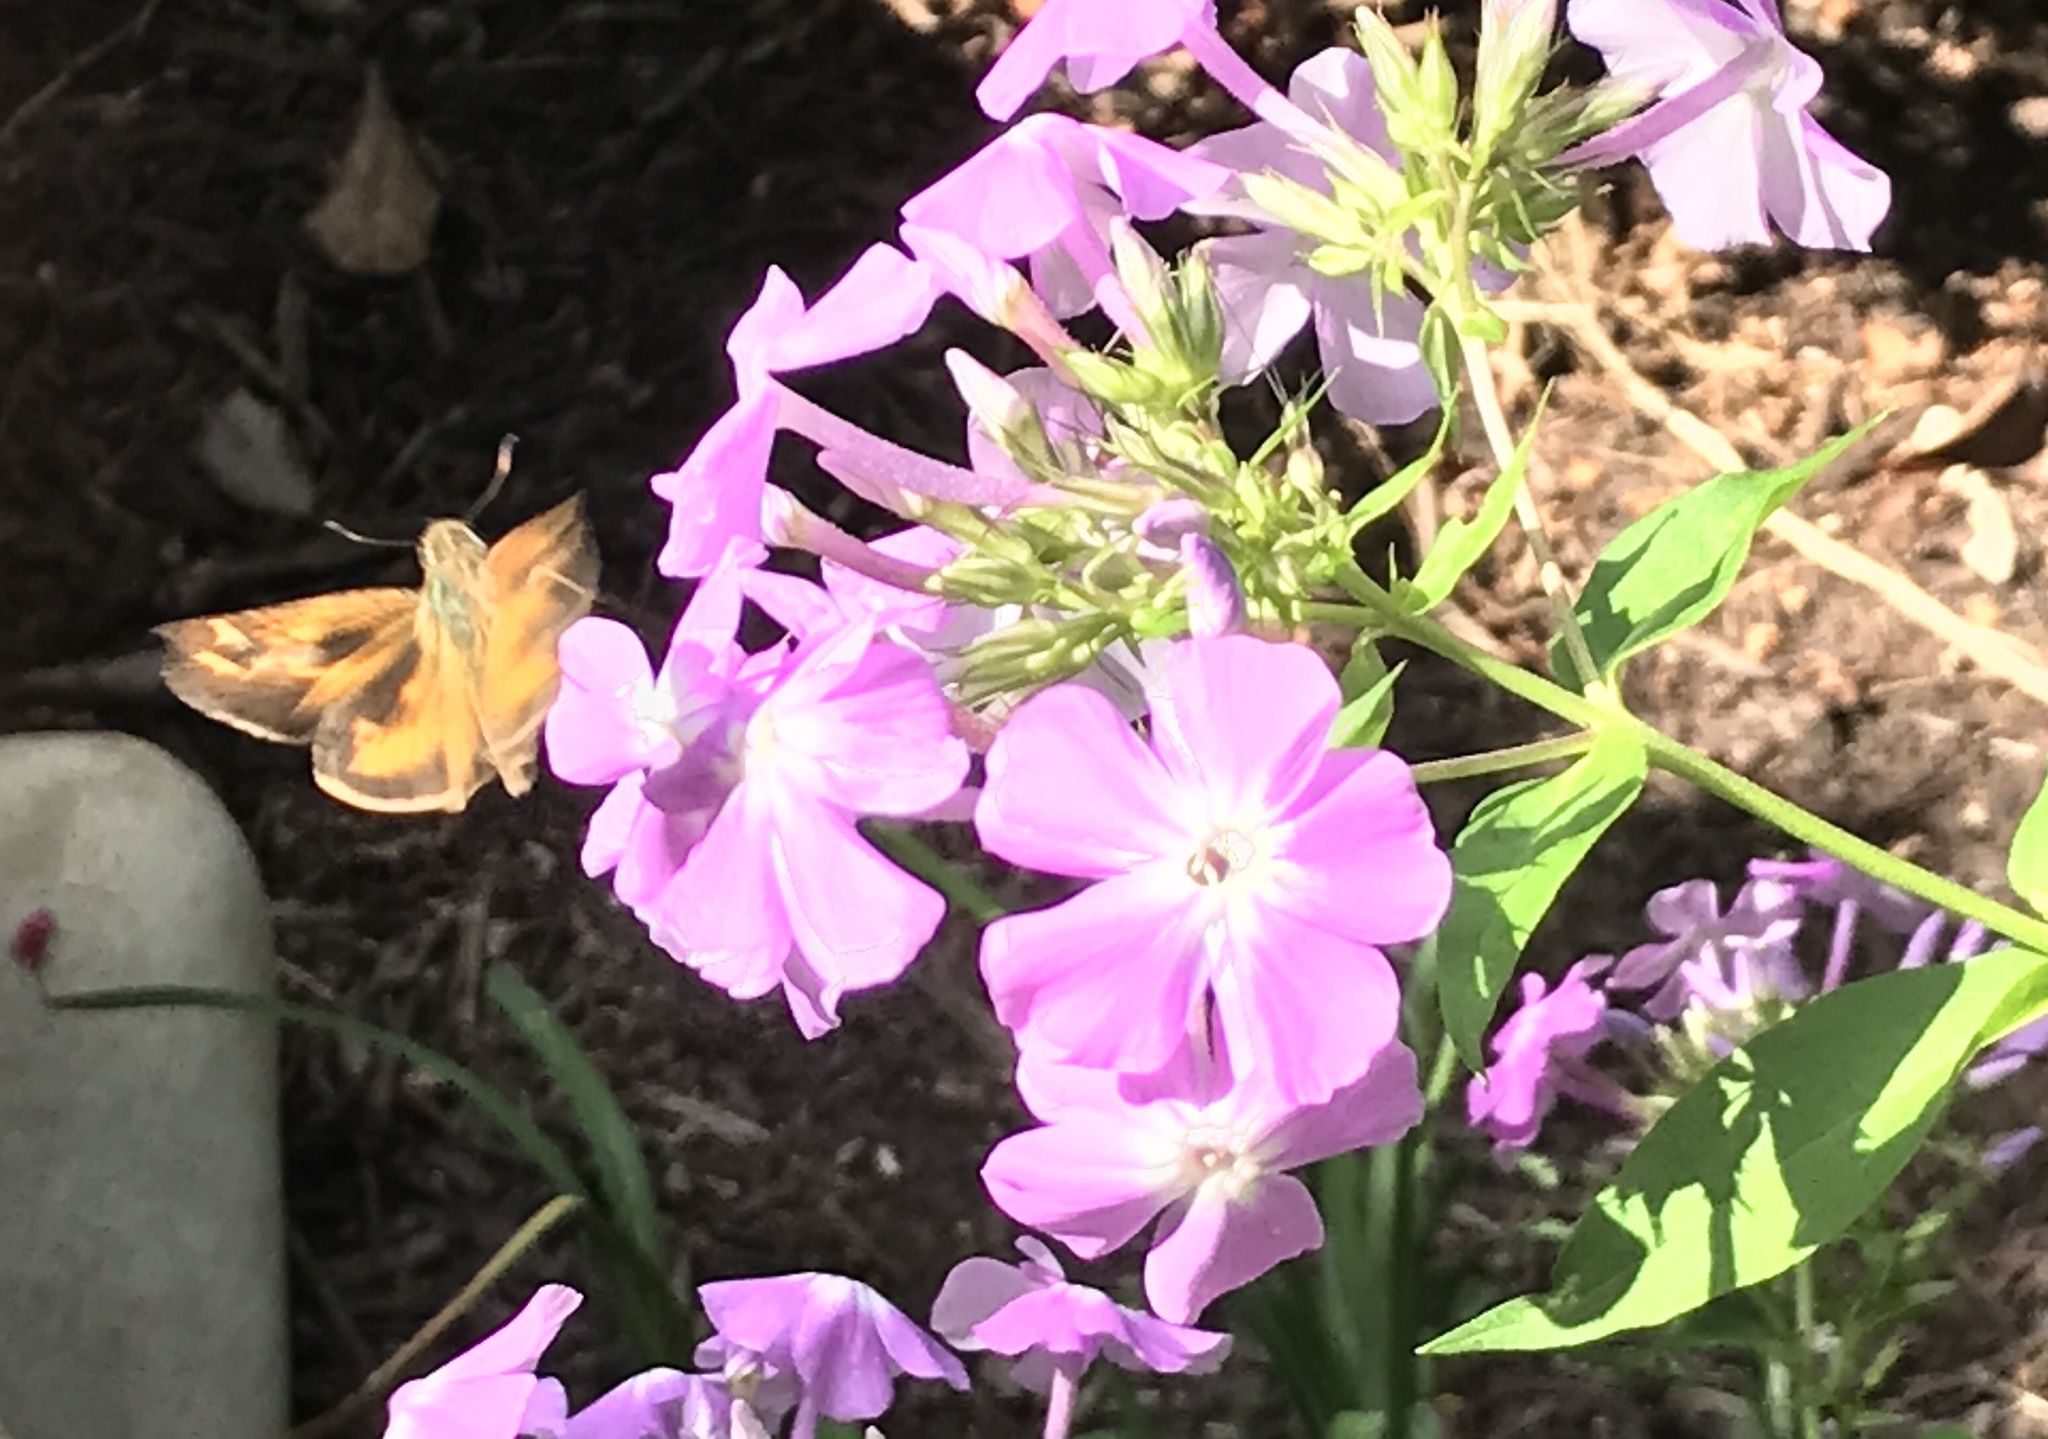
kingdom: Animalia
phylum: Arthropoda
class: Insecta
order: Lepidoptera
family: Hesperiidae
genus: Atalopedes
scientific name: Atalopedes
